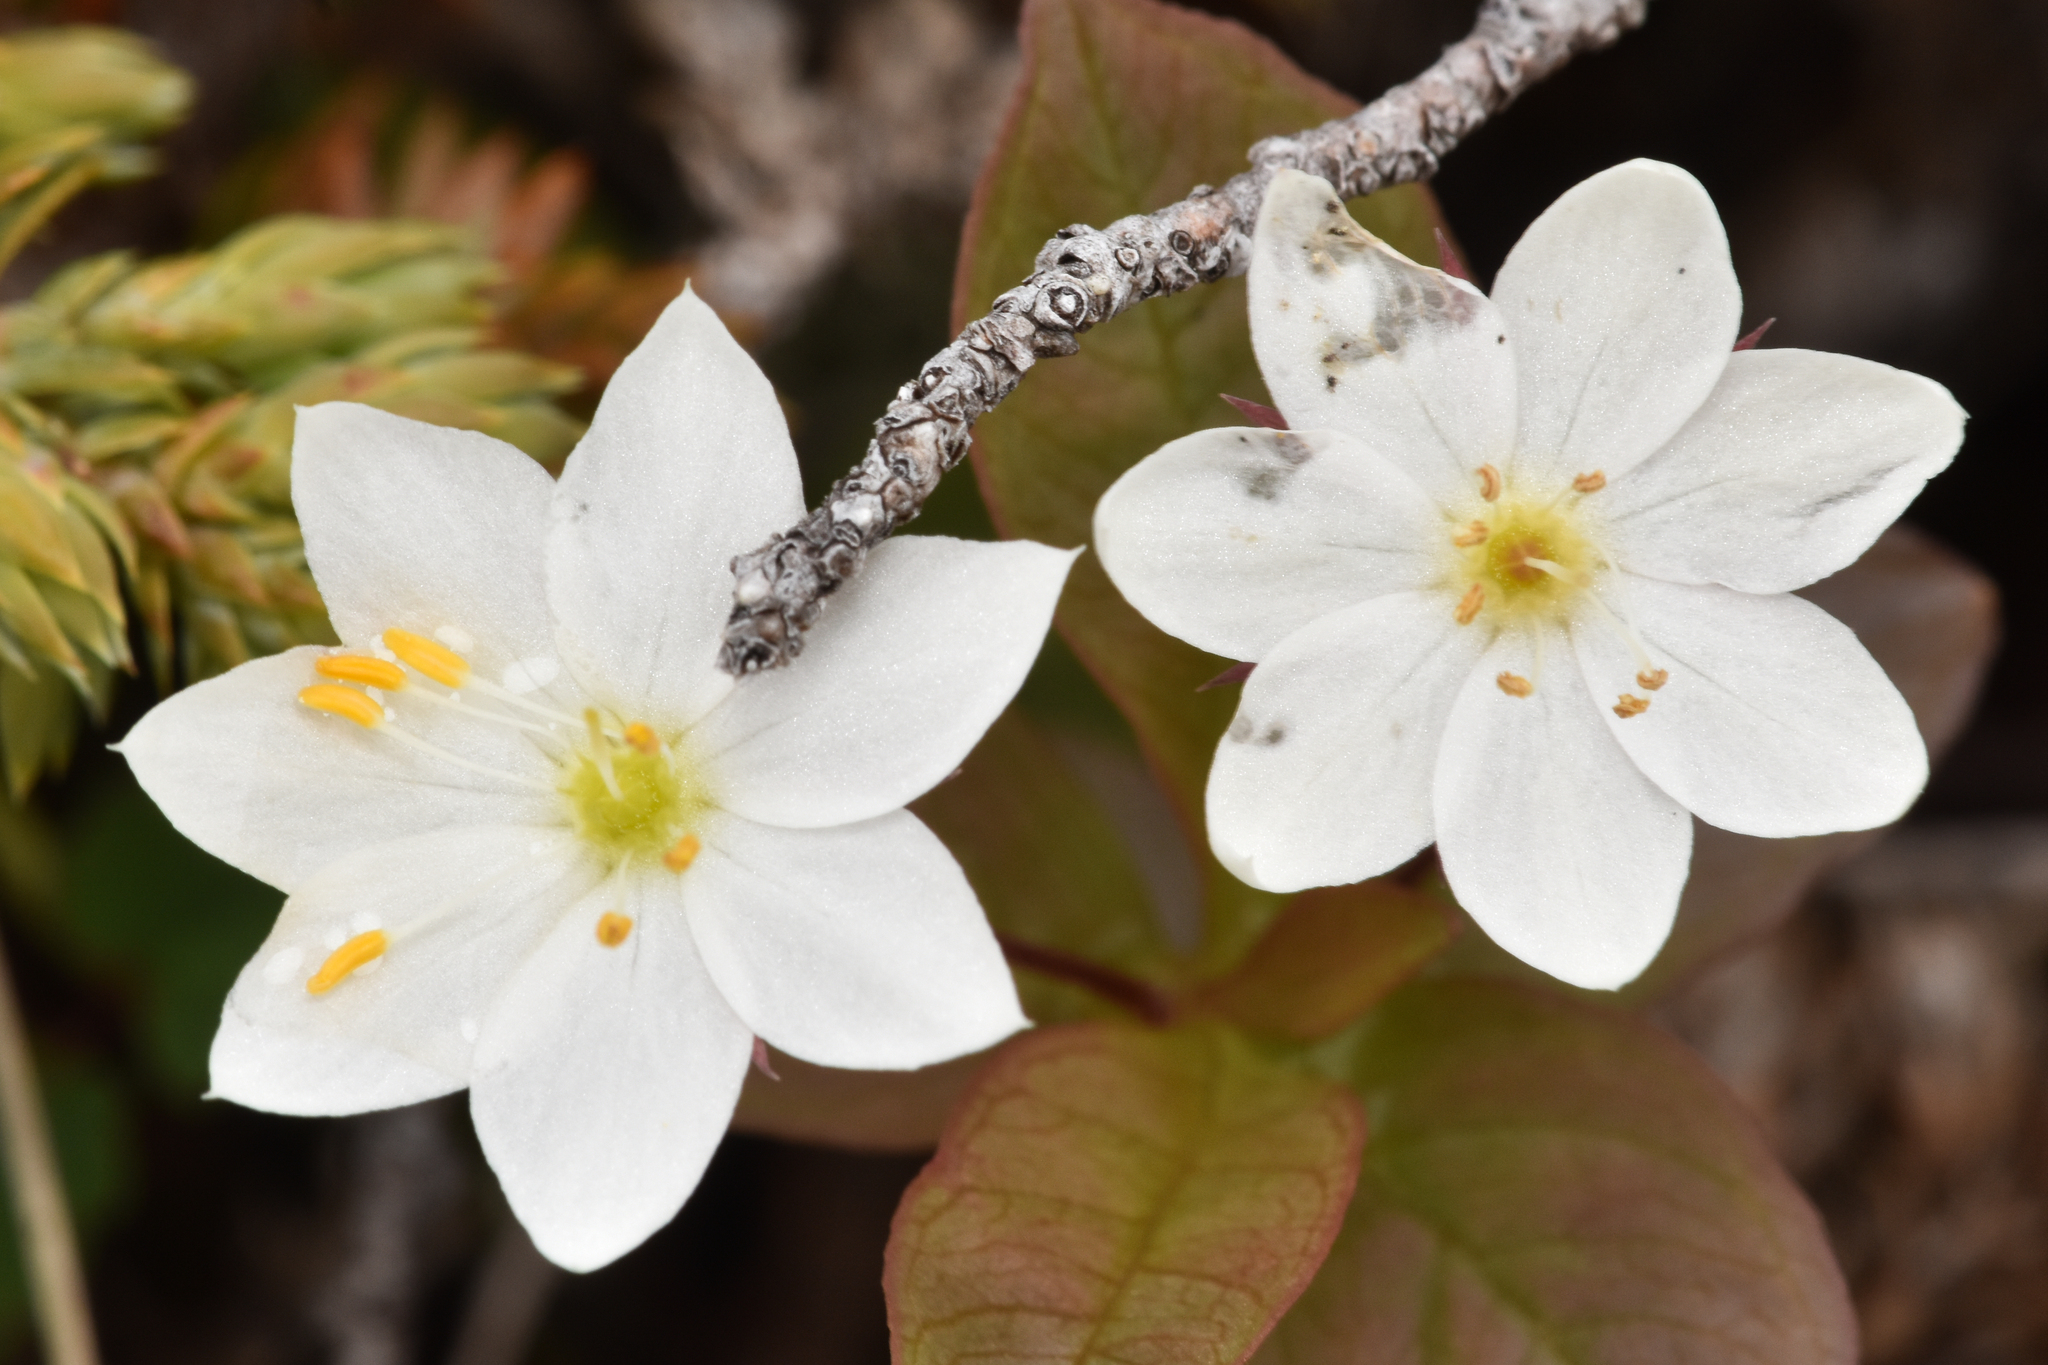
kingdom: Plantae
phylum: Tracheophyta
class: Magnoliopsida
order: Ericales
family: Primulaceae
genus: Lysimachia
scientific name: Lysimachia europaea
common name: Arctic starflower
